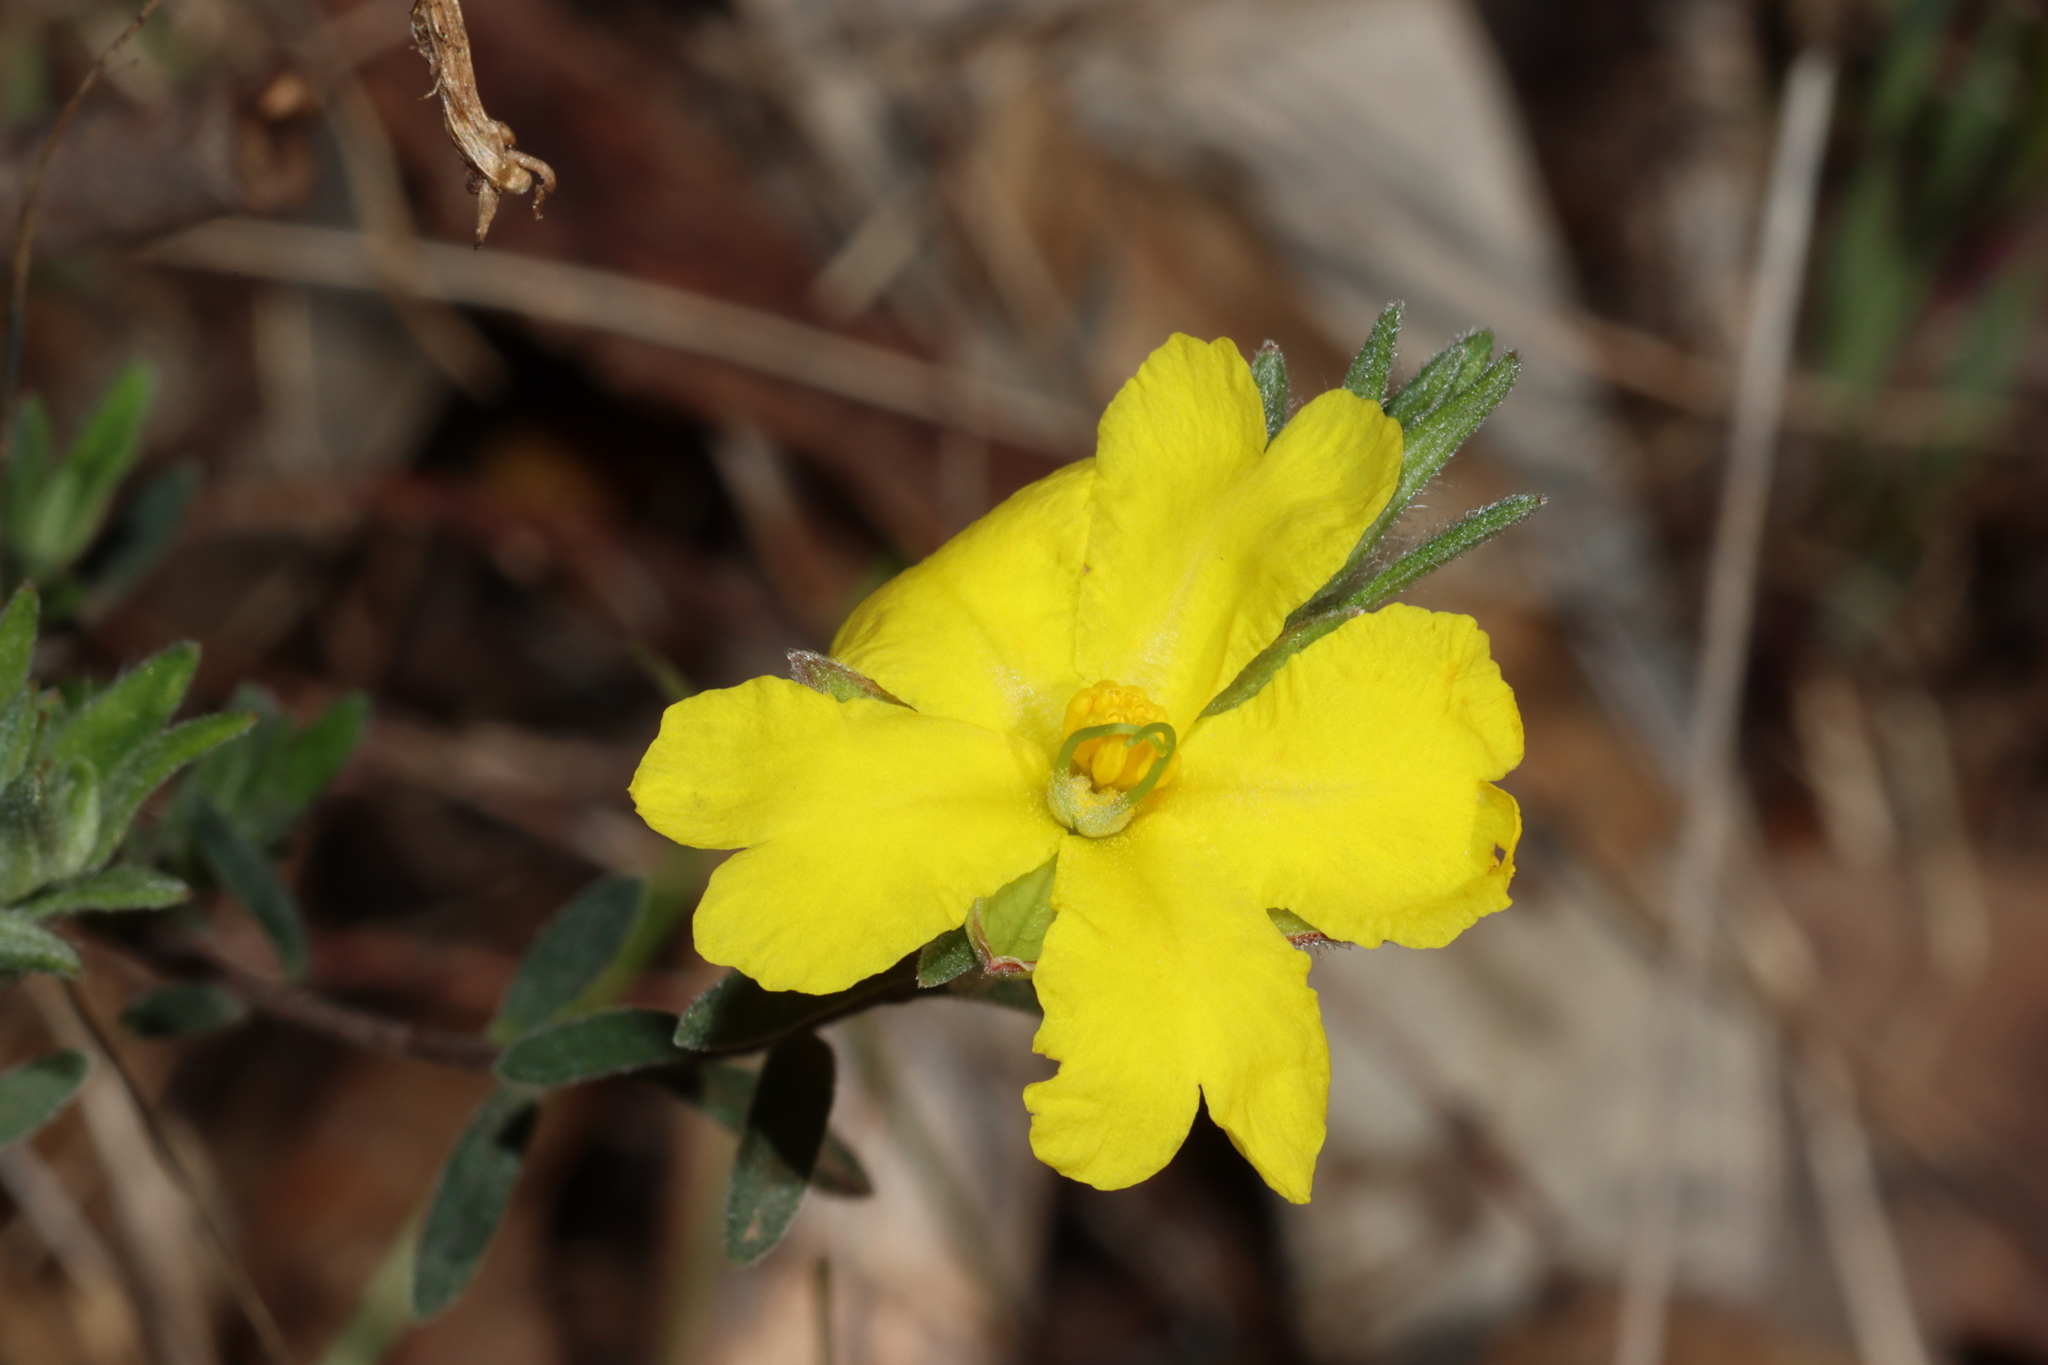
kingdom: Plantae
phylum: Tracheophyta
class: Magnoliopsida
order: Dilleniales
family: Dilleniaceae
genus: Hibbertia
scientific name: Hibbertia crinita
